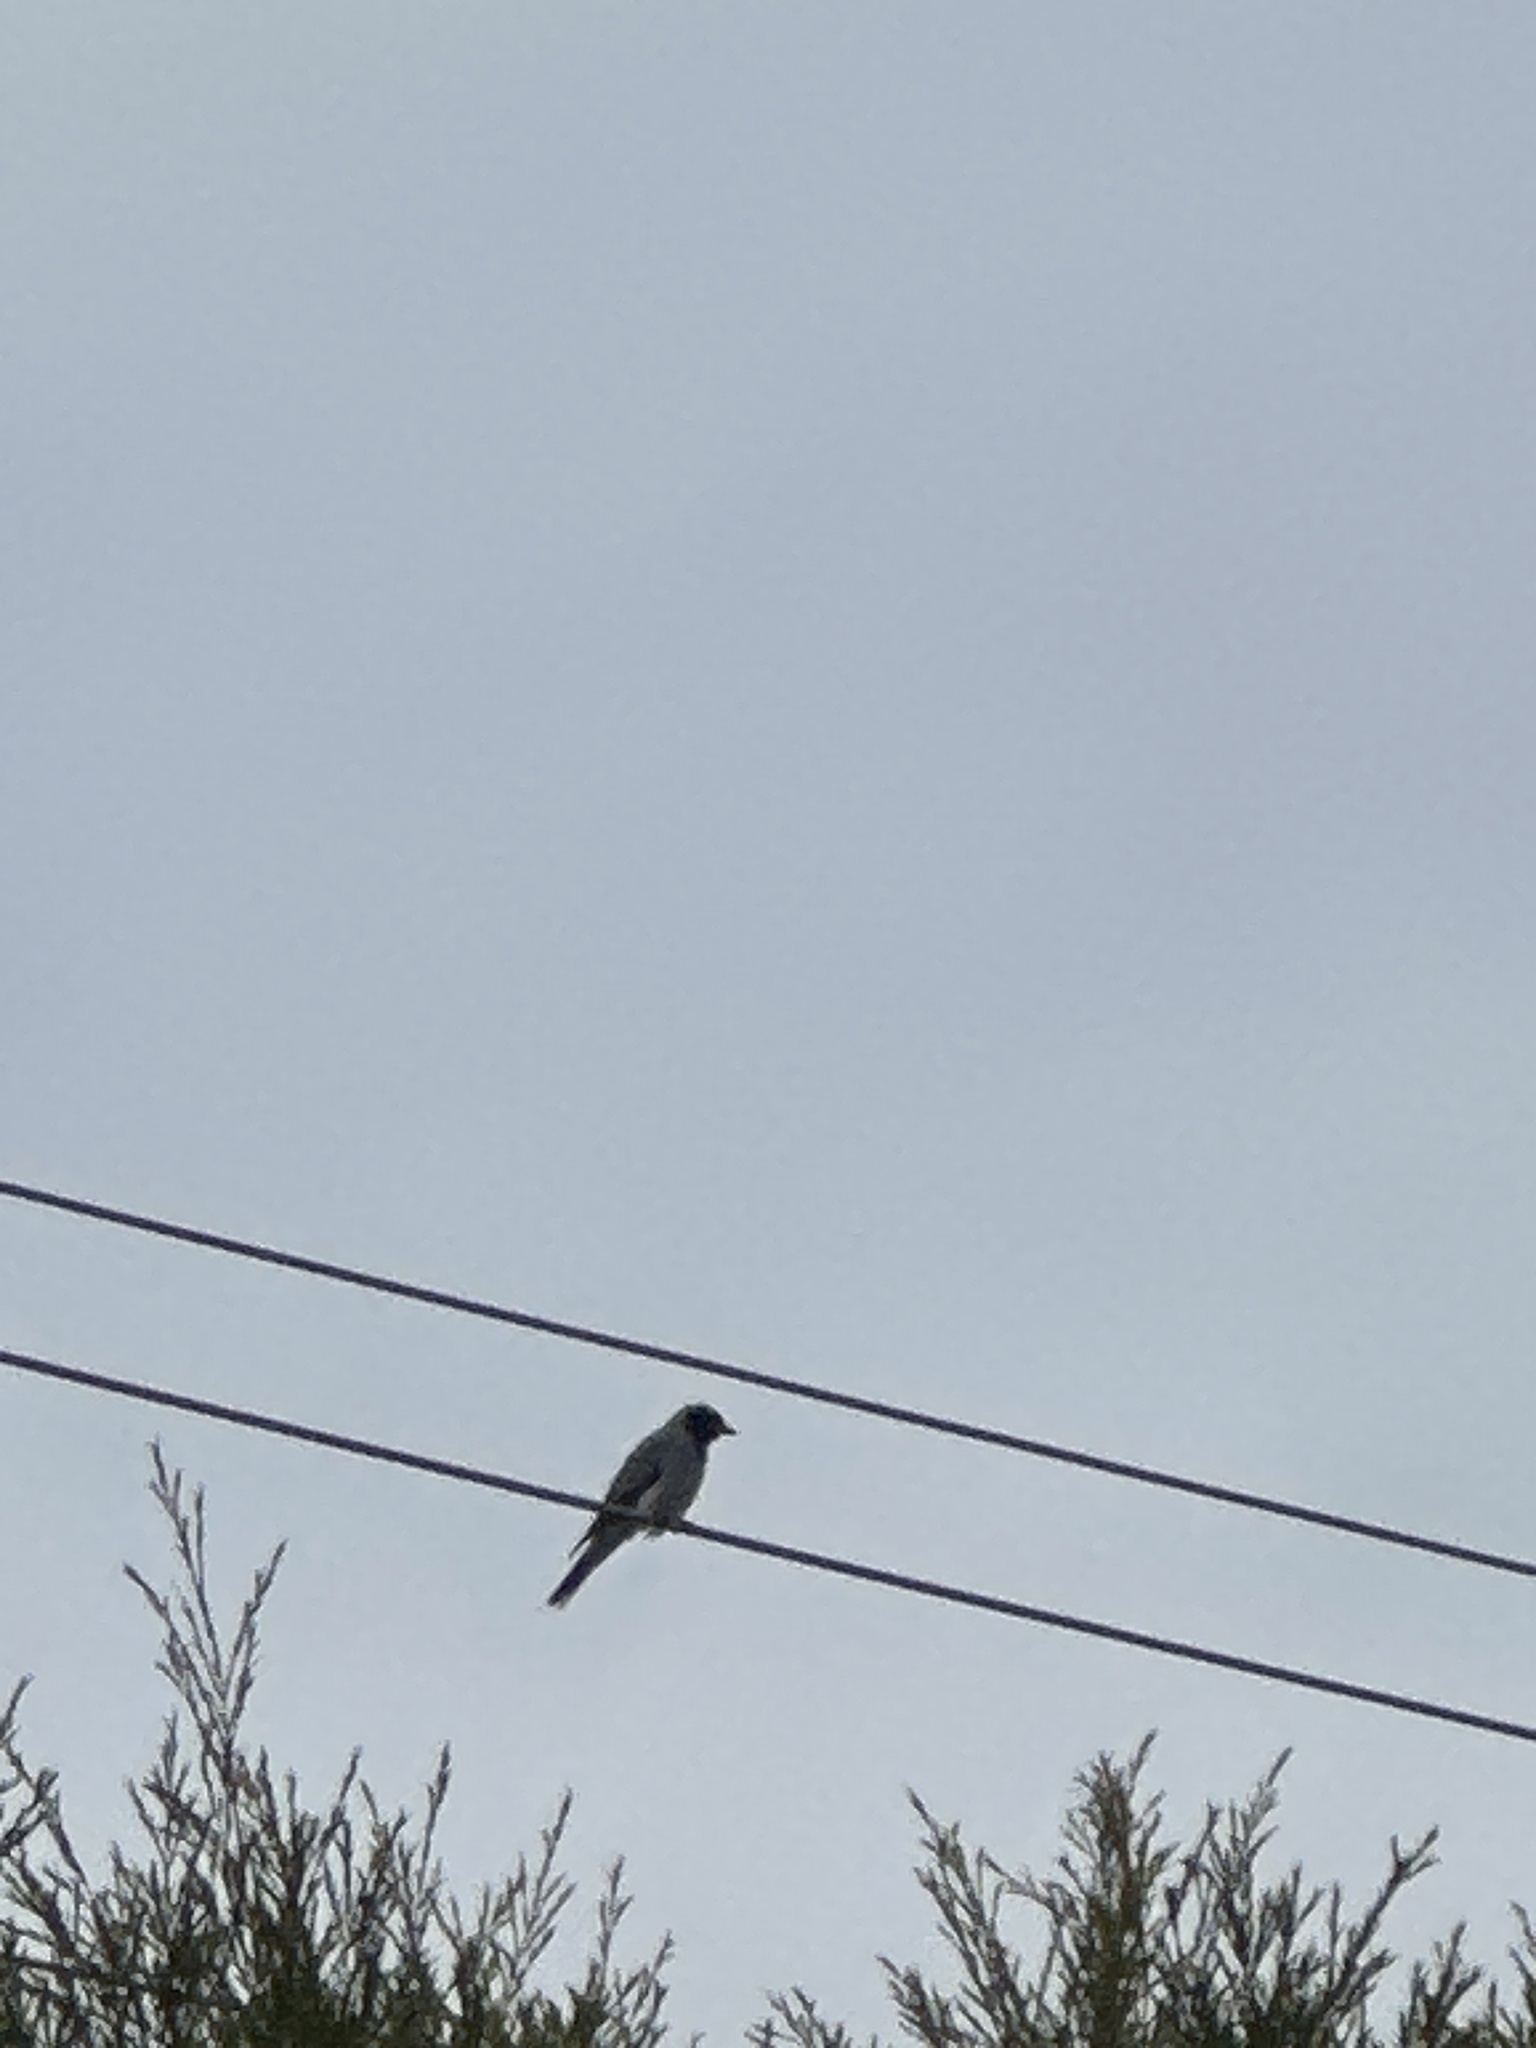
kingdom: Animalia
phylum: Chordata
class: Aves
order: Passeriformes
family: Campephagidae
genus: Coracina
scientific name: Coracina novaehollandiae
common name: Black-faced cuckooshrike
